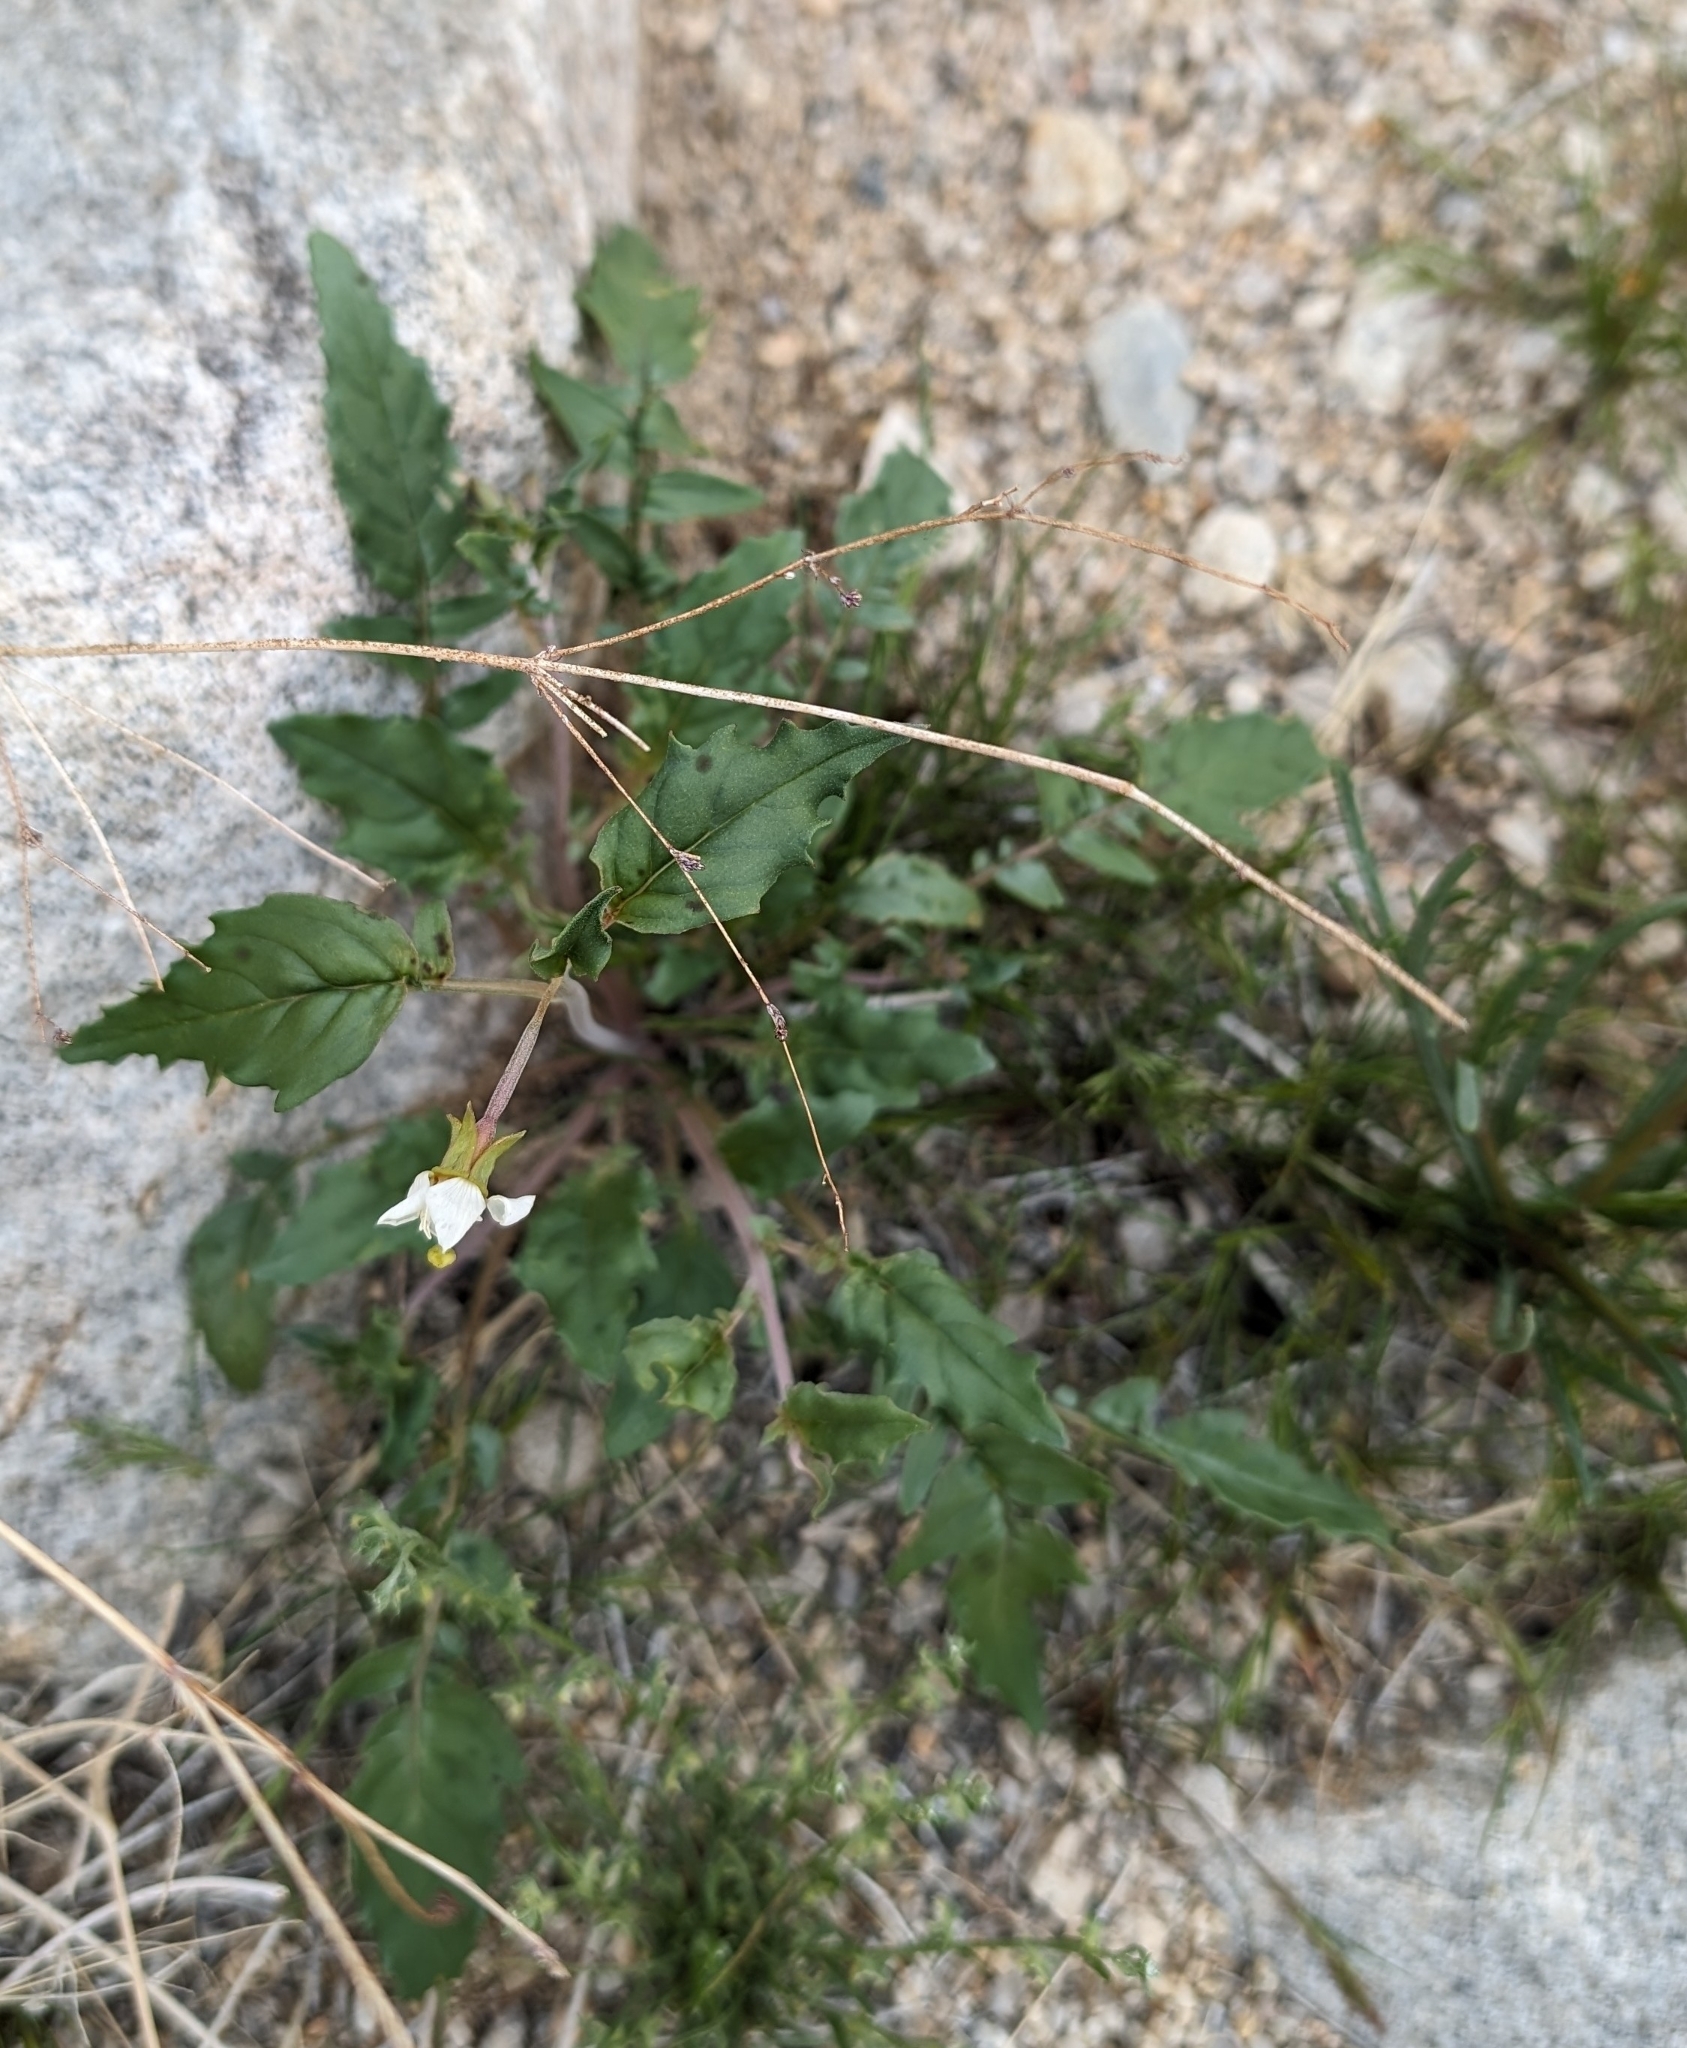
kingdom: Plantae
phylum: Tracheophyta
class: Magnoliopsida
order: Myrtales
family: Onagraceae
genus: Chylismia
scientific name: Chylismia claviformis
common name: Browneyes
